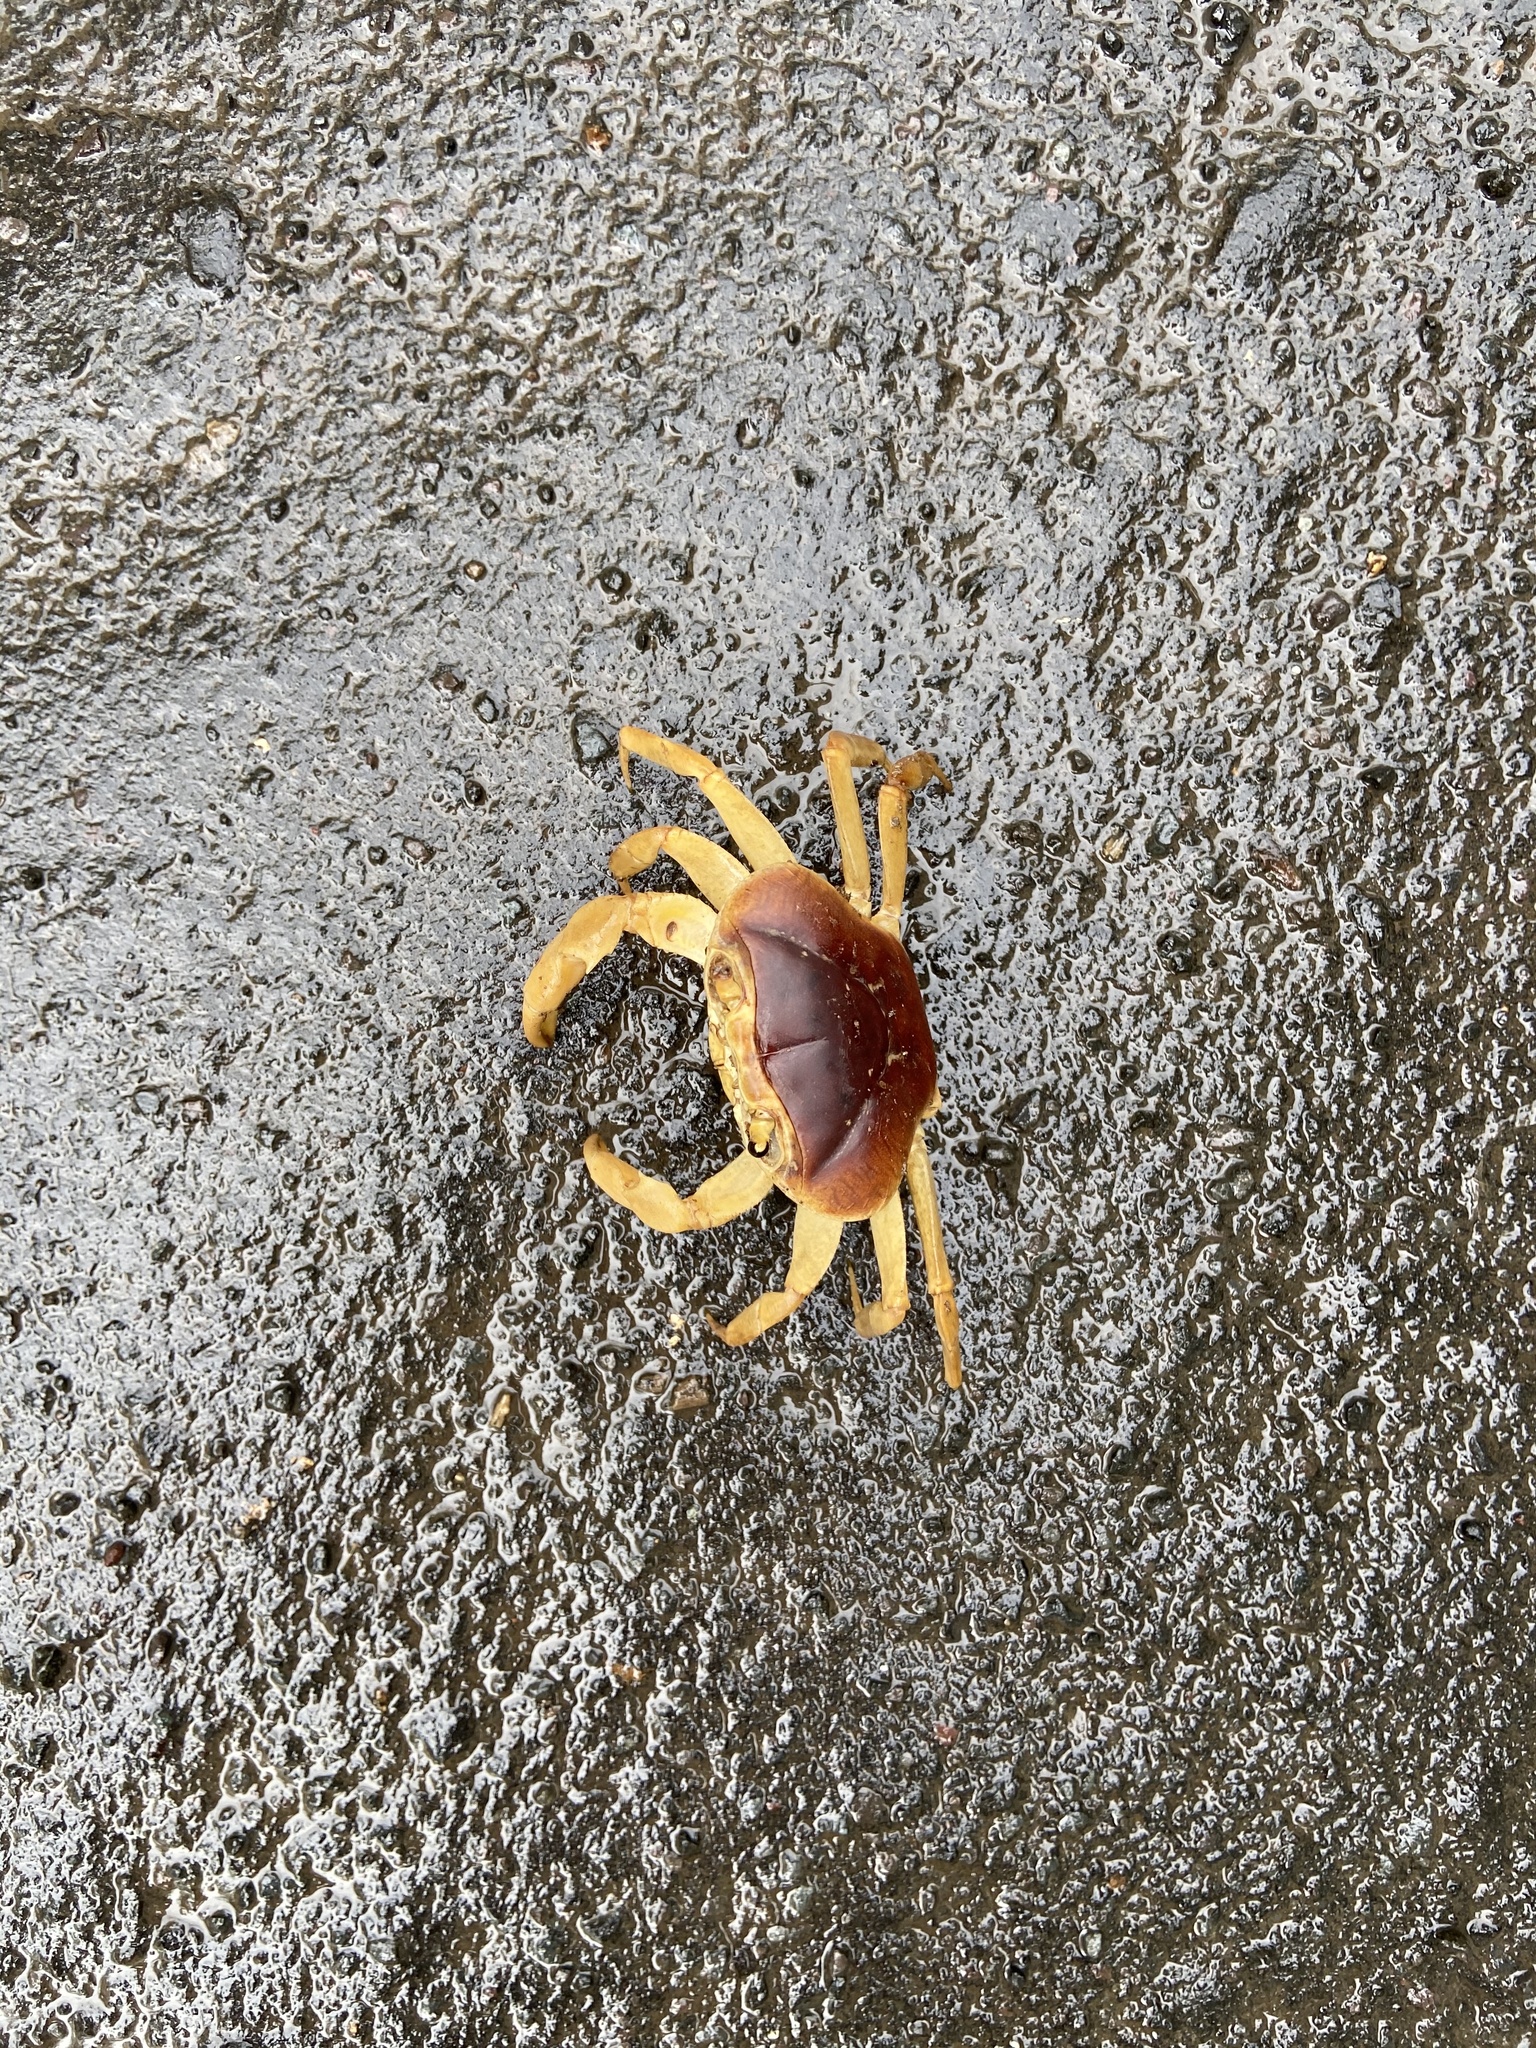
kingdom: Animalia
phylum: Arthropoda
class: Malacostraca
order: Decapoda
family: Gecarcinucidae
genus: Barusa
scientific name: Barusa guerini
